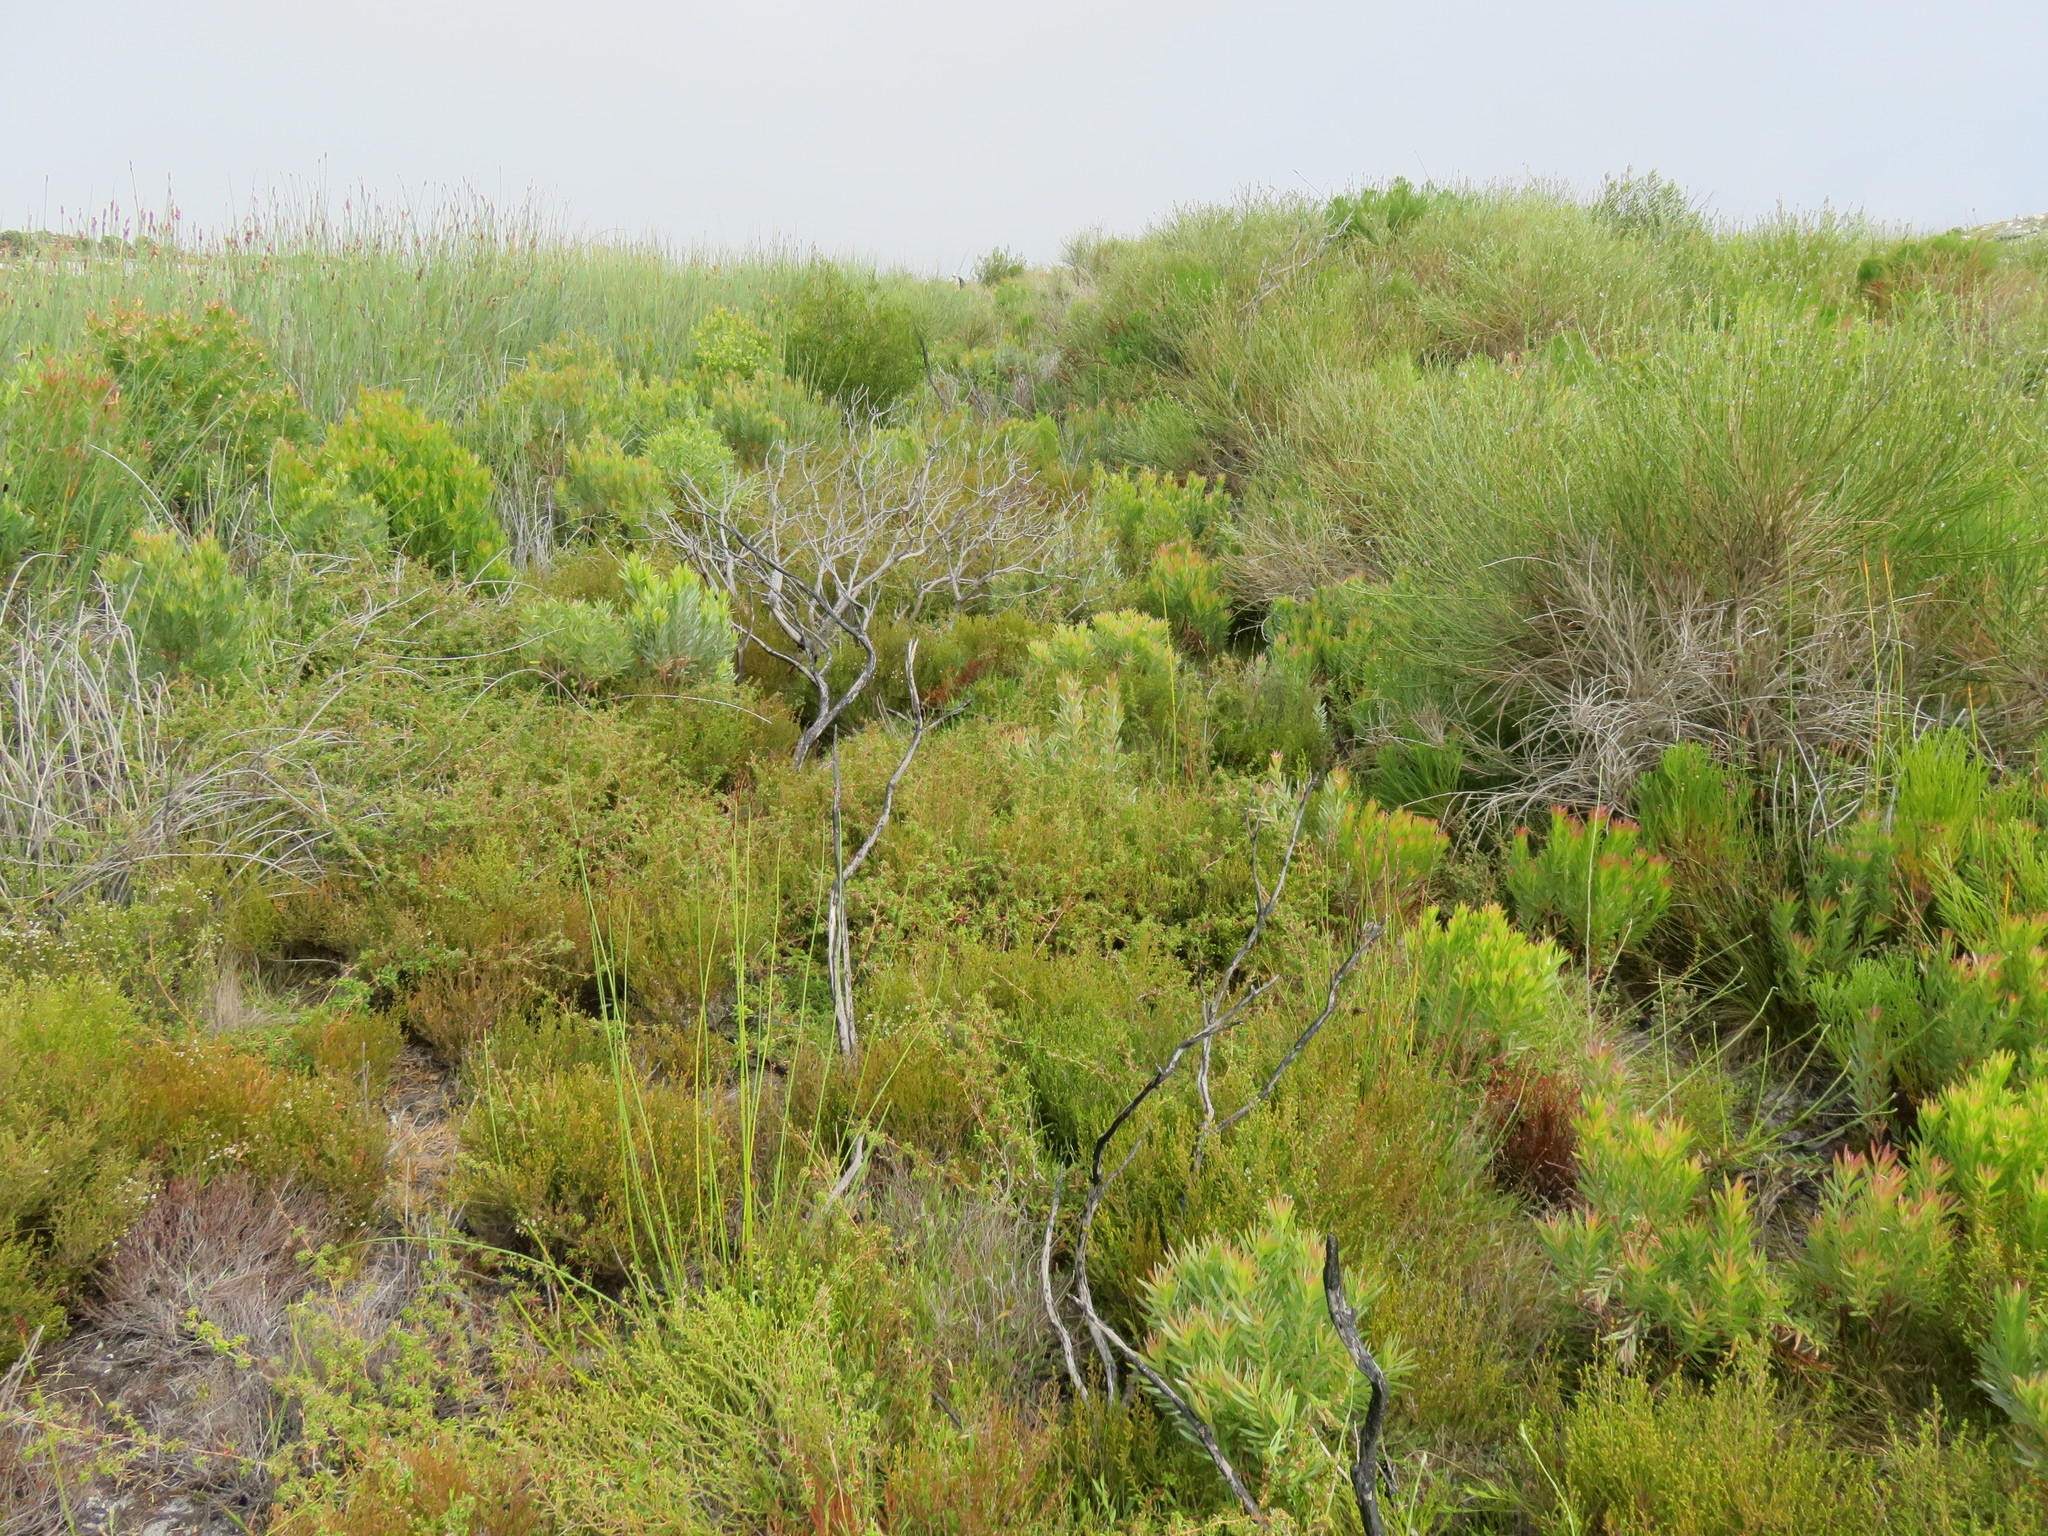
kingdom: Plantae
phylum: Tracheophyta
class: Magnoliopsida
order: Rosales
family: Rosaceae
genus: Cliffortia
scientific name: Cliffortia ferruginea
